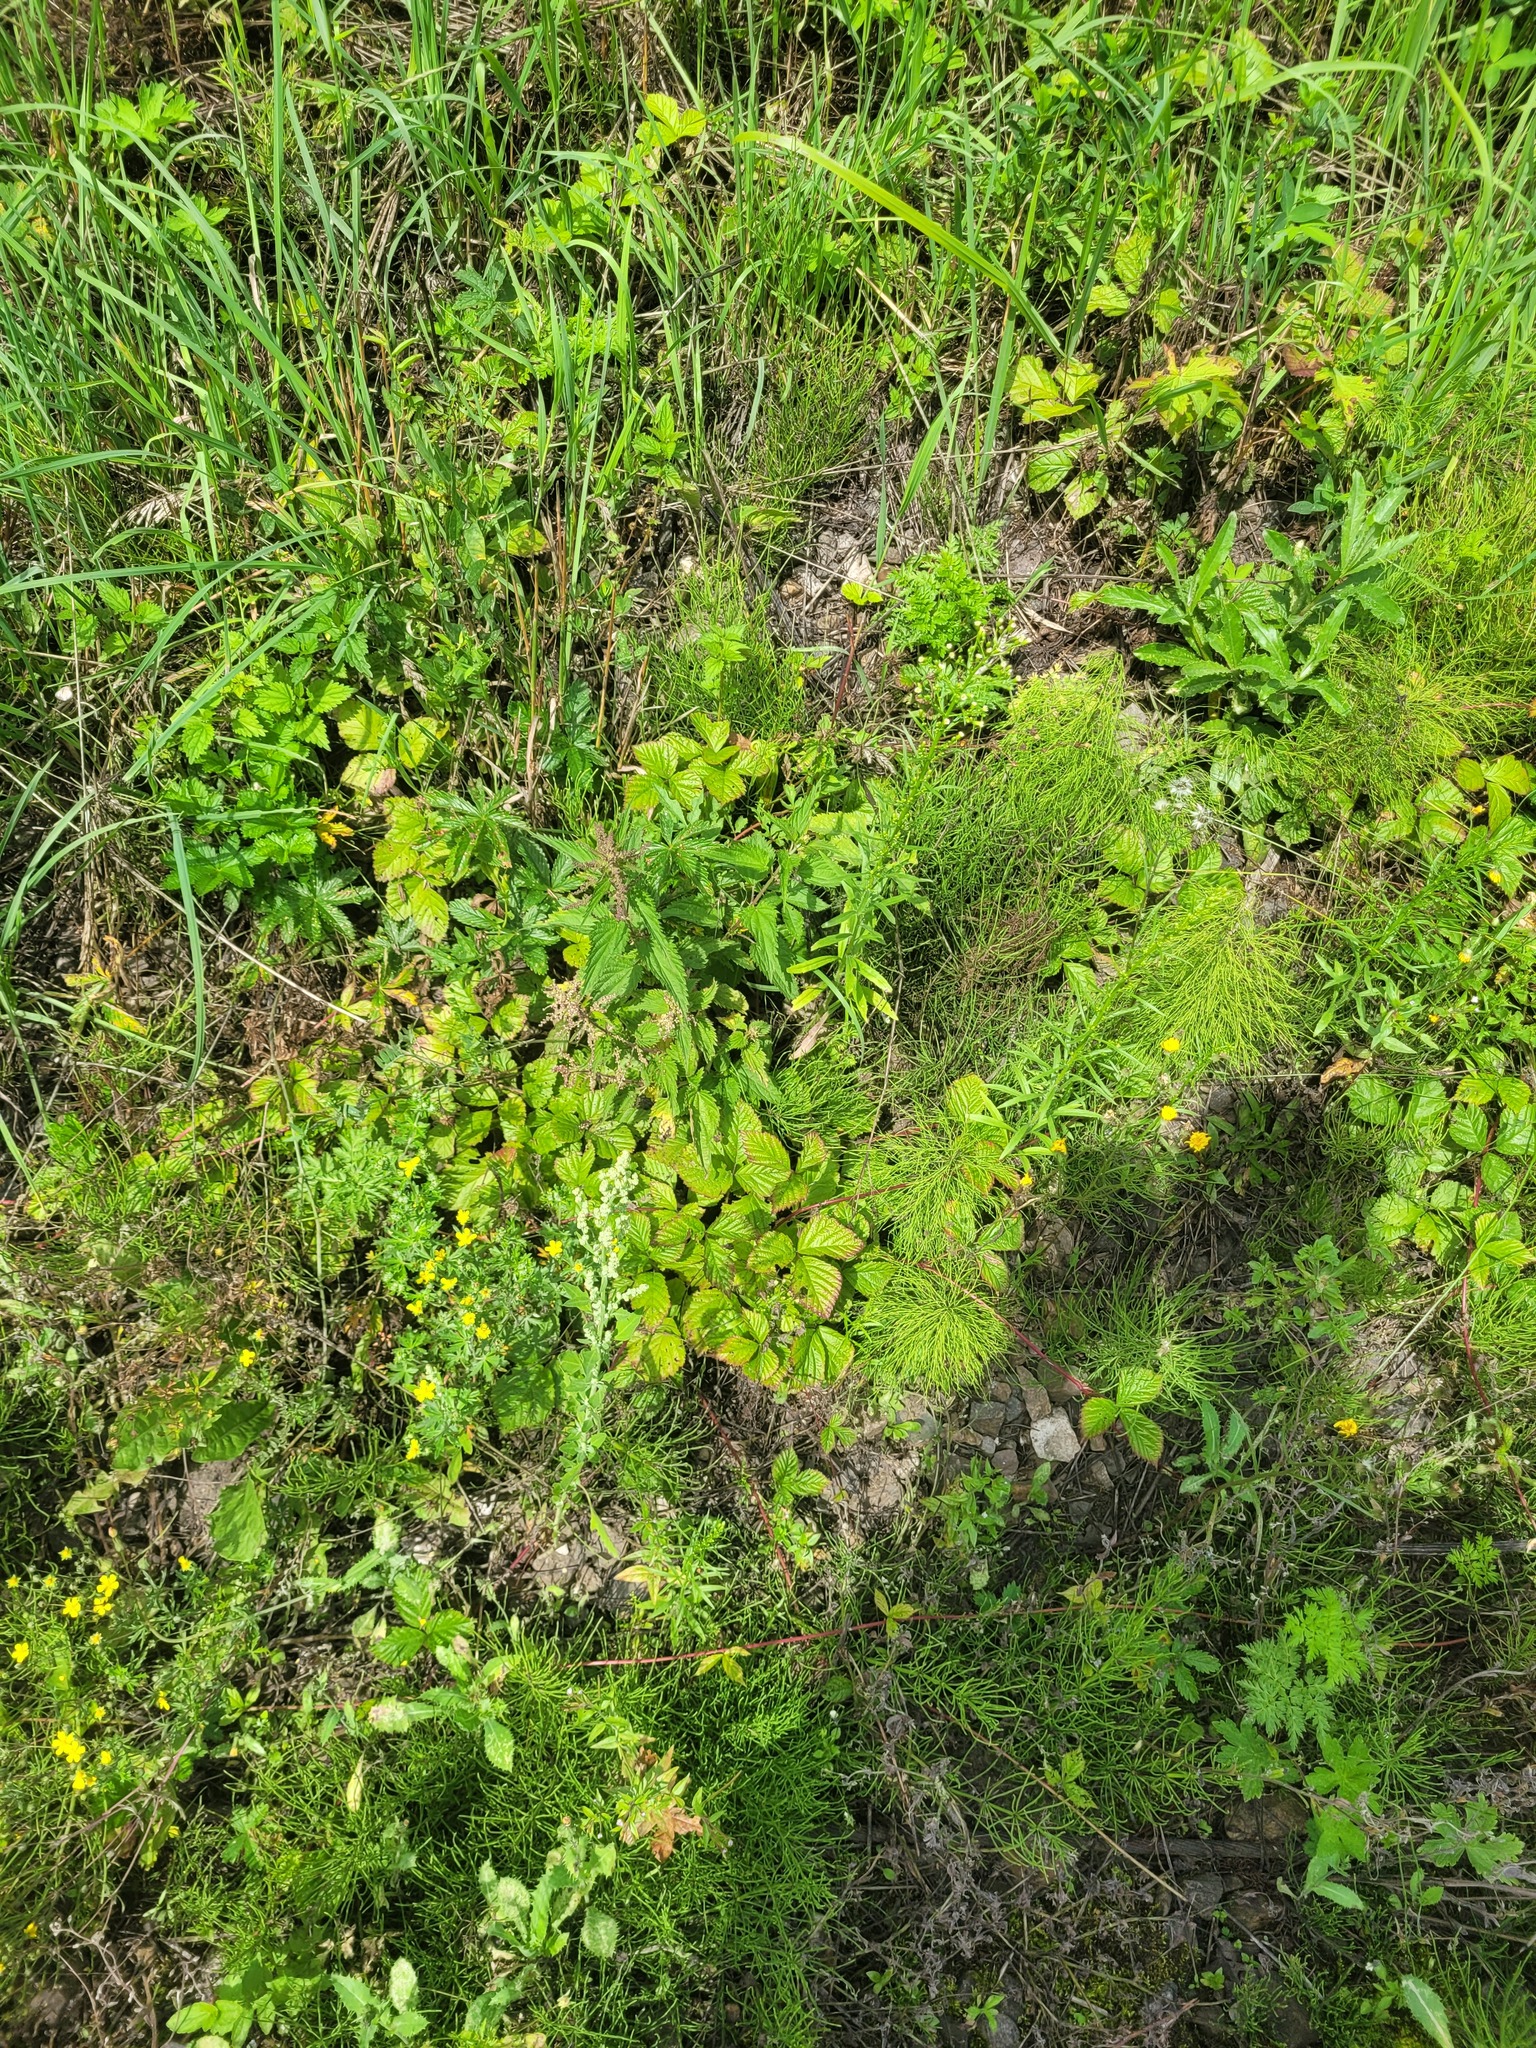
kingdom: Plantae
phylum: Tracheophyta
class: Magnoliopsida
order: Rosales
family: Rosaceae
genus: Rubus
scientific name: Rubus saxatilis
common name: Stone bramble
